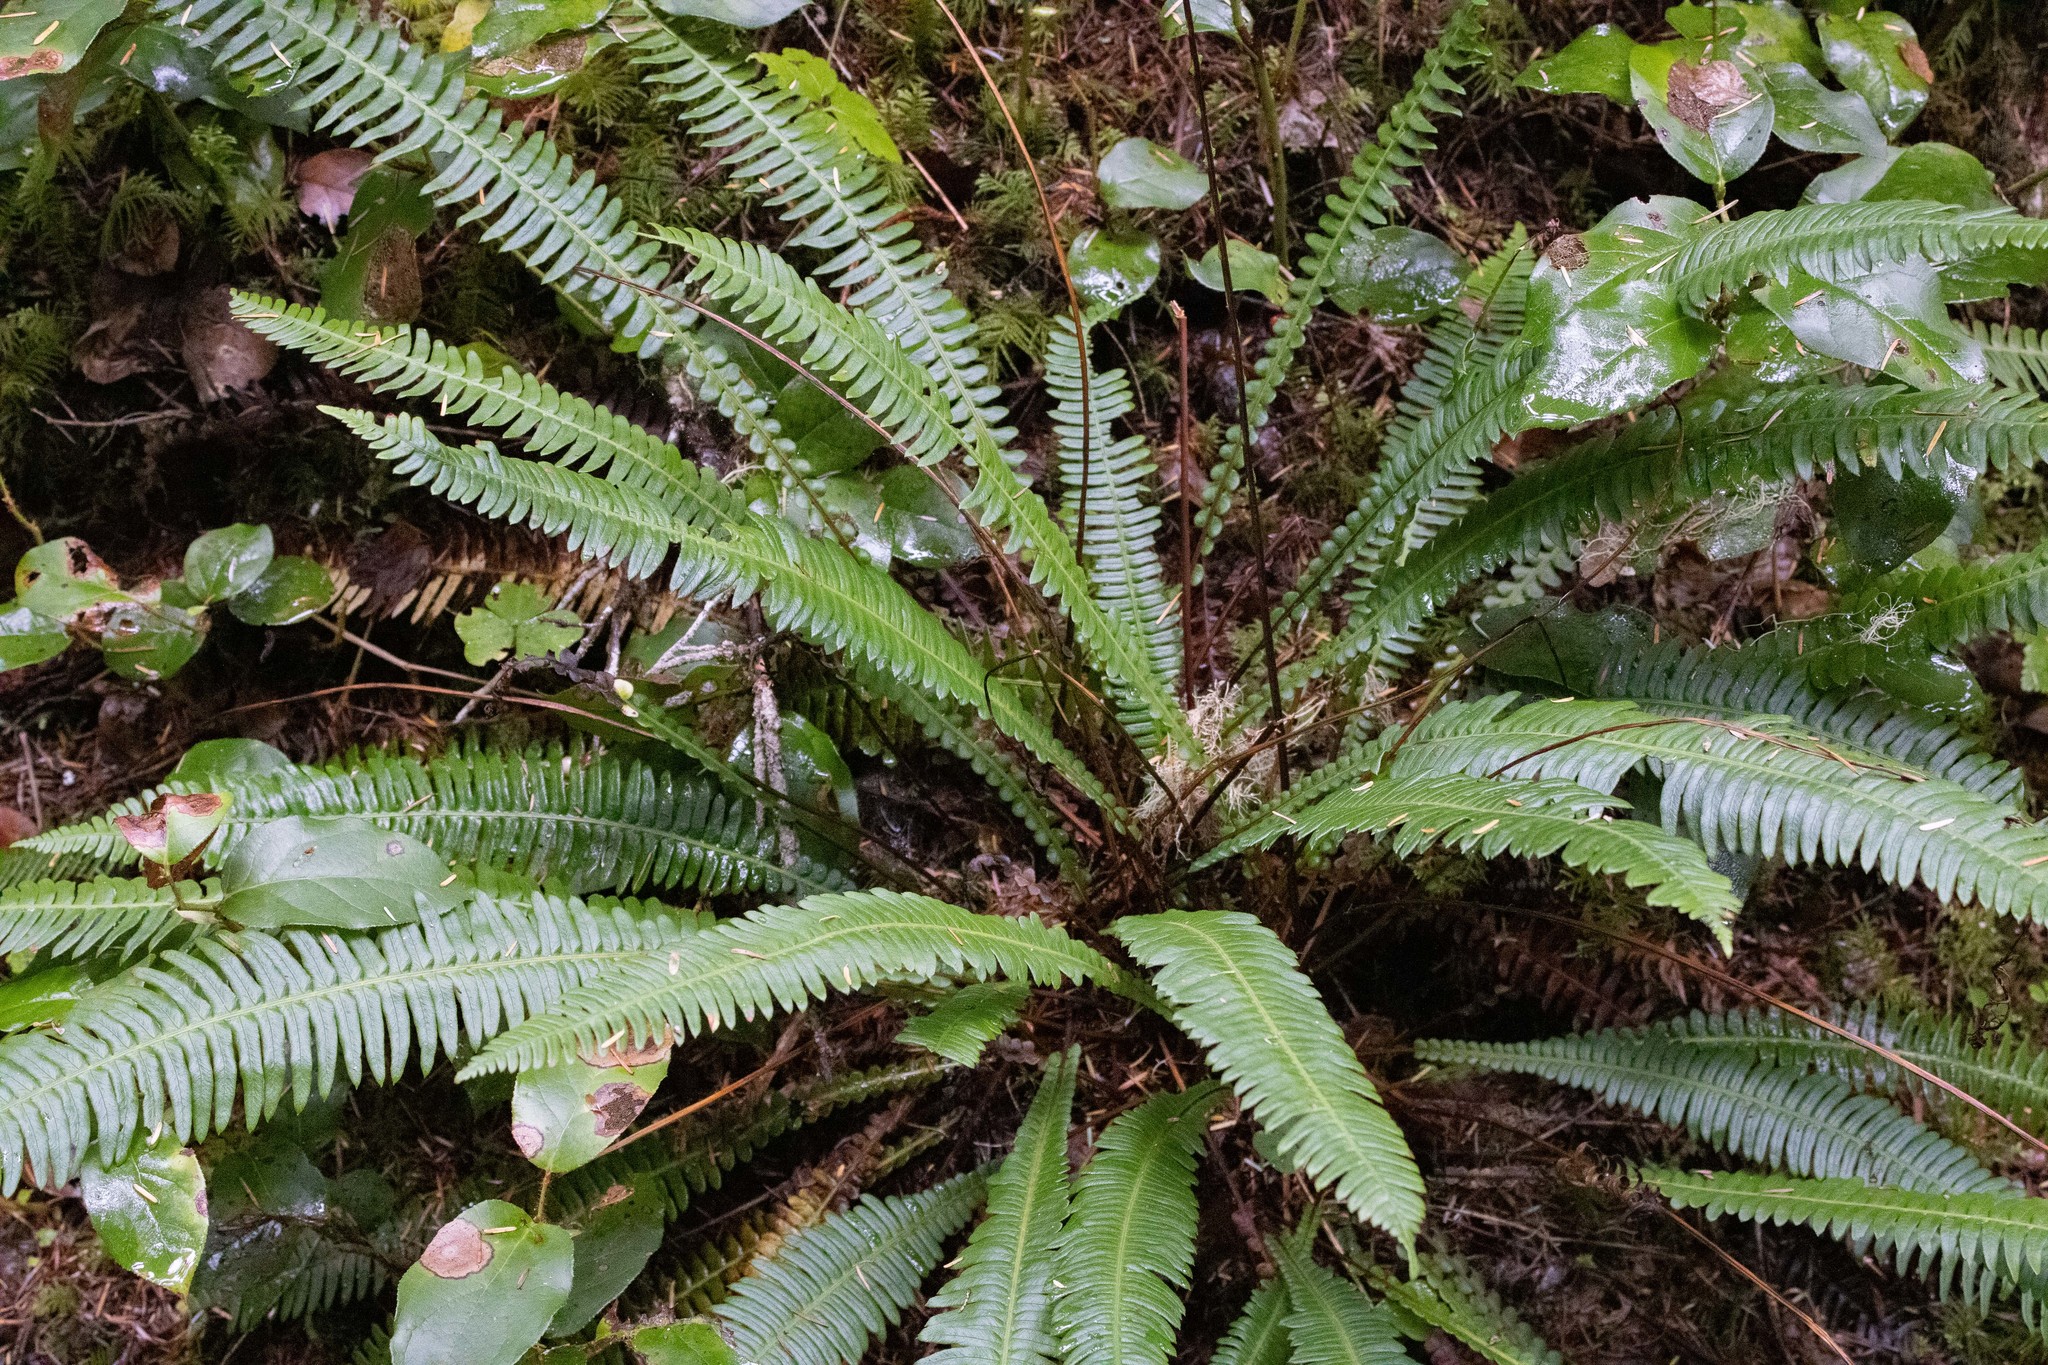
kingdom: Plantae
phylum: Tracheophyta
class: Polypodiopsida
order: Polypodiales
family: Blechnaceae
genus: Struthiopteris
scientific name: Struthiopteris spicant
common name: Deer fern
